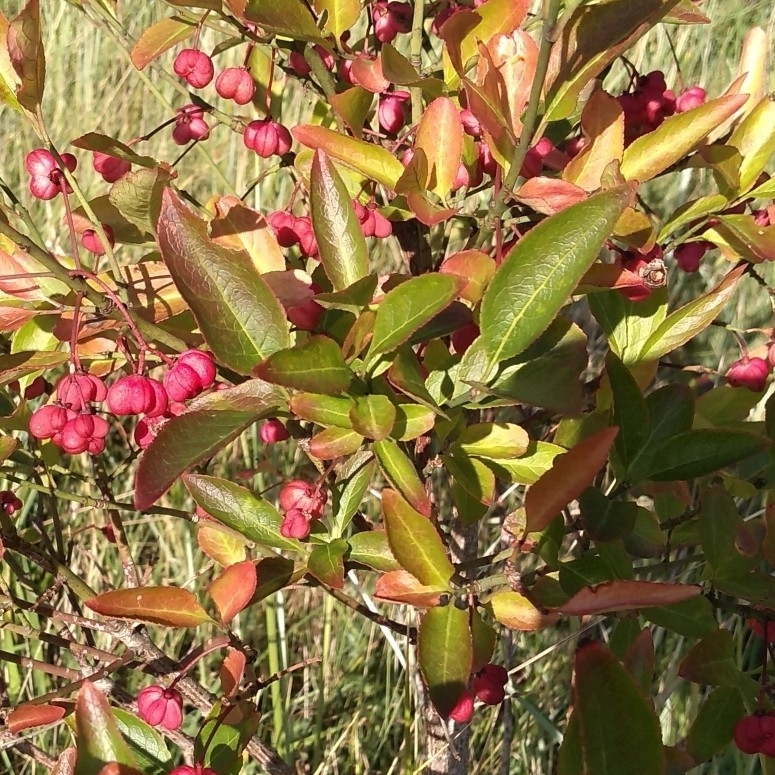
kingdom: Plantae
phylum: Tracheophyta
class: Magnoliopsida
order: Celastrales
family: Celastraceae
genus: Euonymus
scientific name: Euonymus europaeus
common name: Spindle
